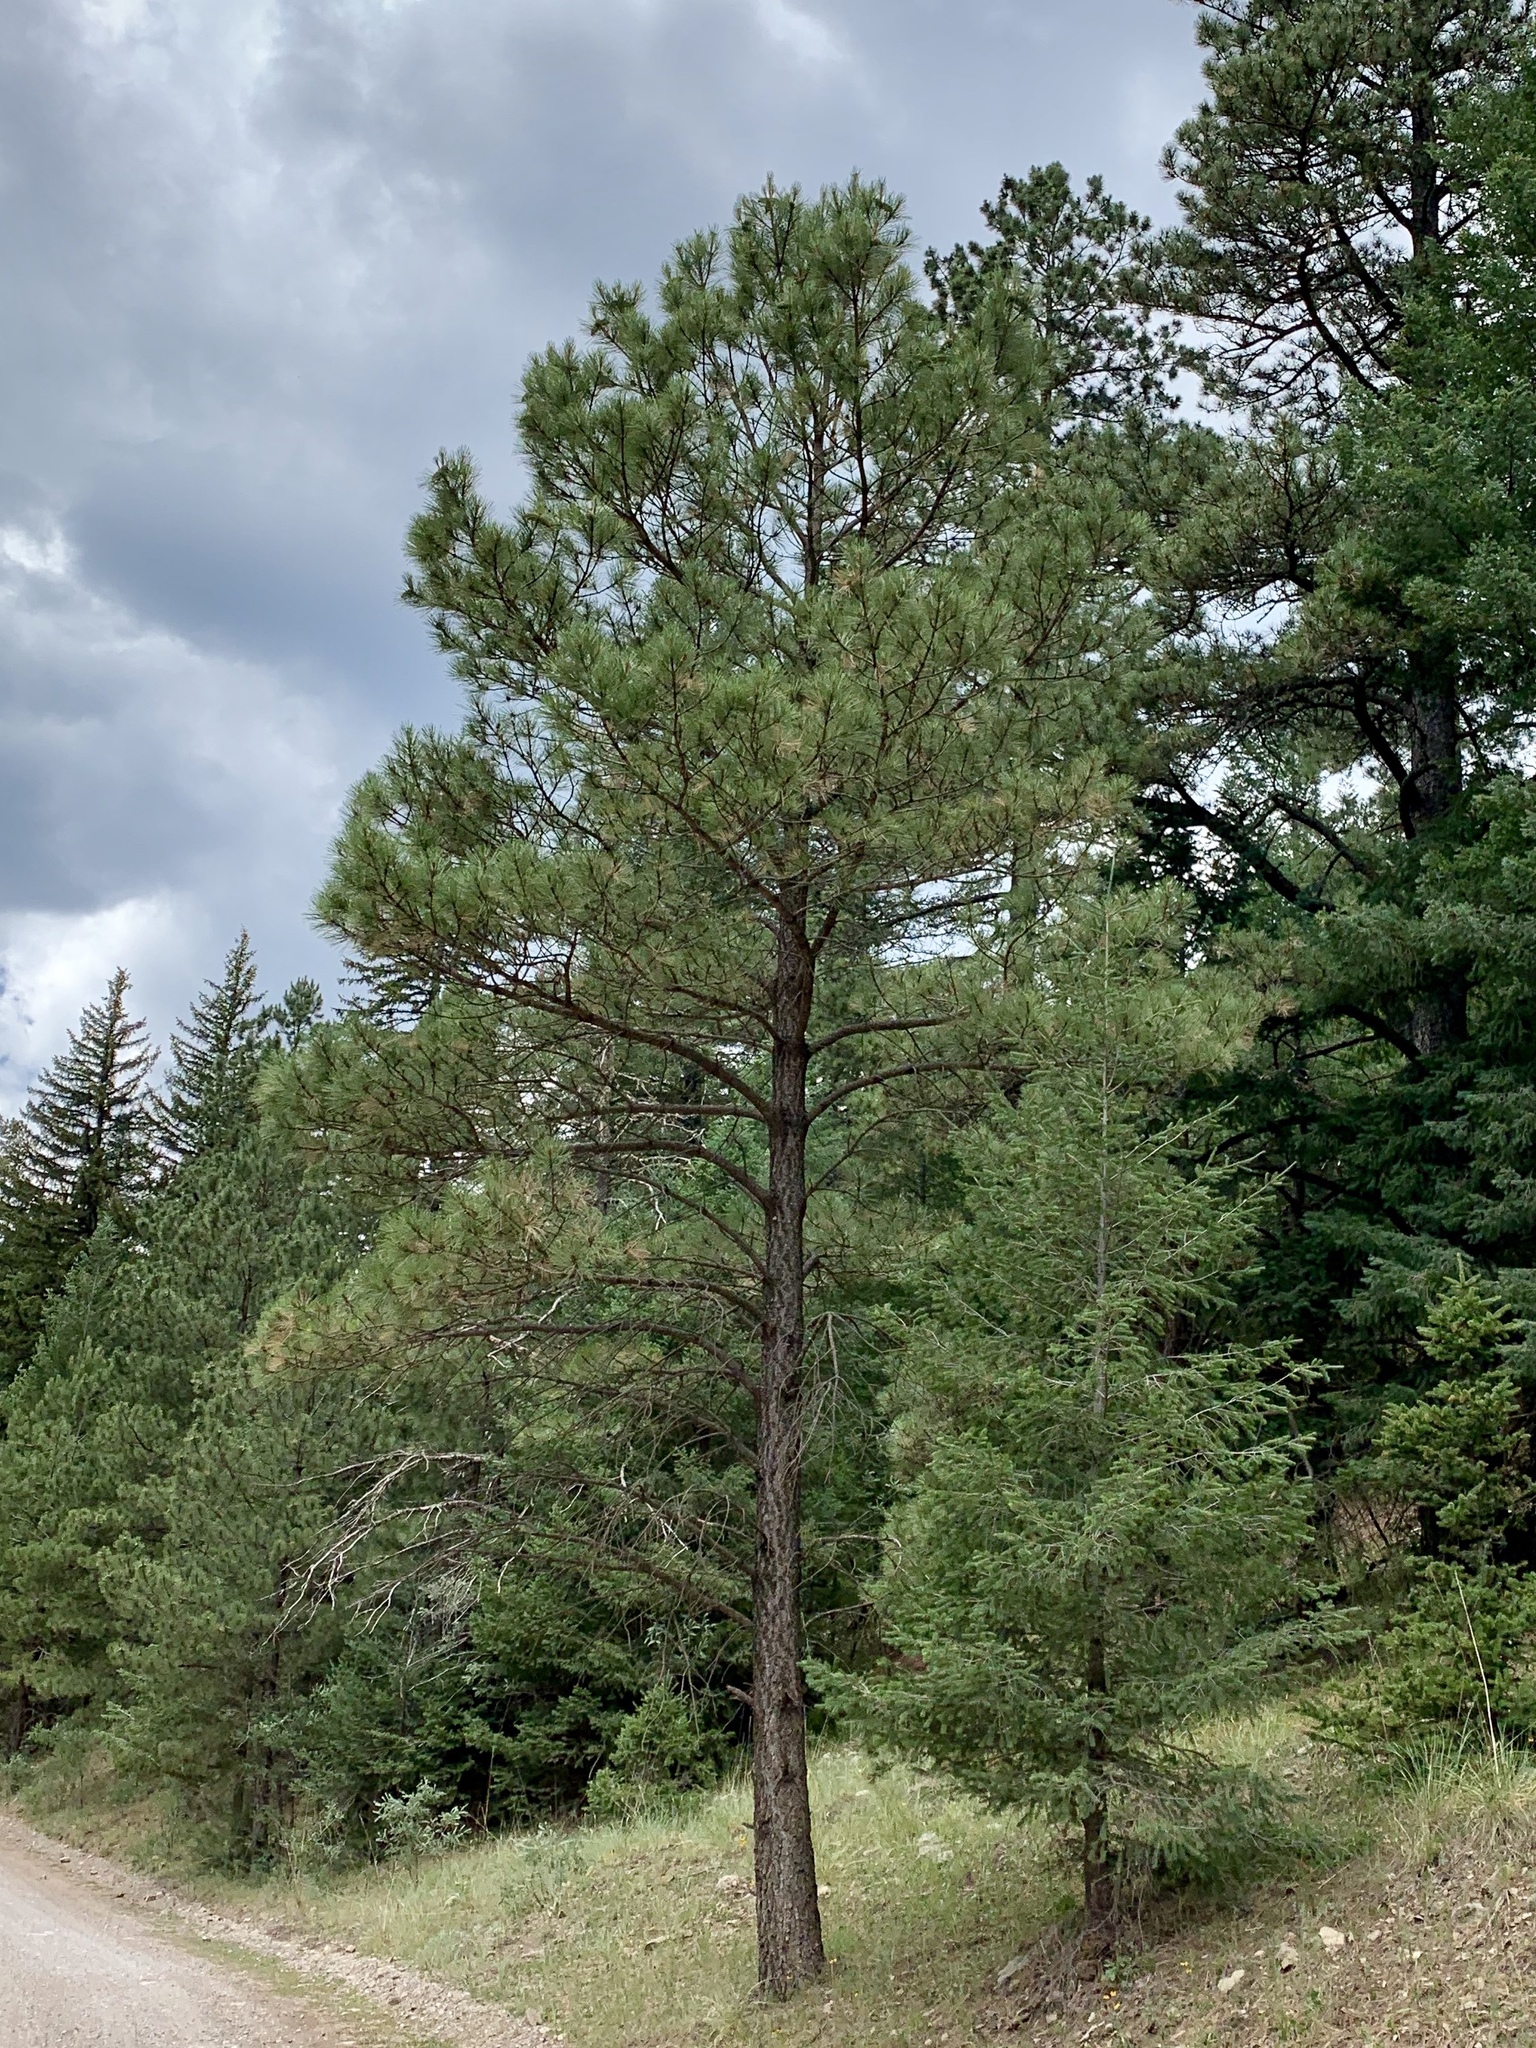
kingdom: Plantae
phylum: Tracheophyta
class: Pinopsida
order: Pinales
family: Pinaceae
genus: Pinus
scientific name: Pinus ponderosa
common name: Western yellow-pine
